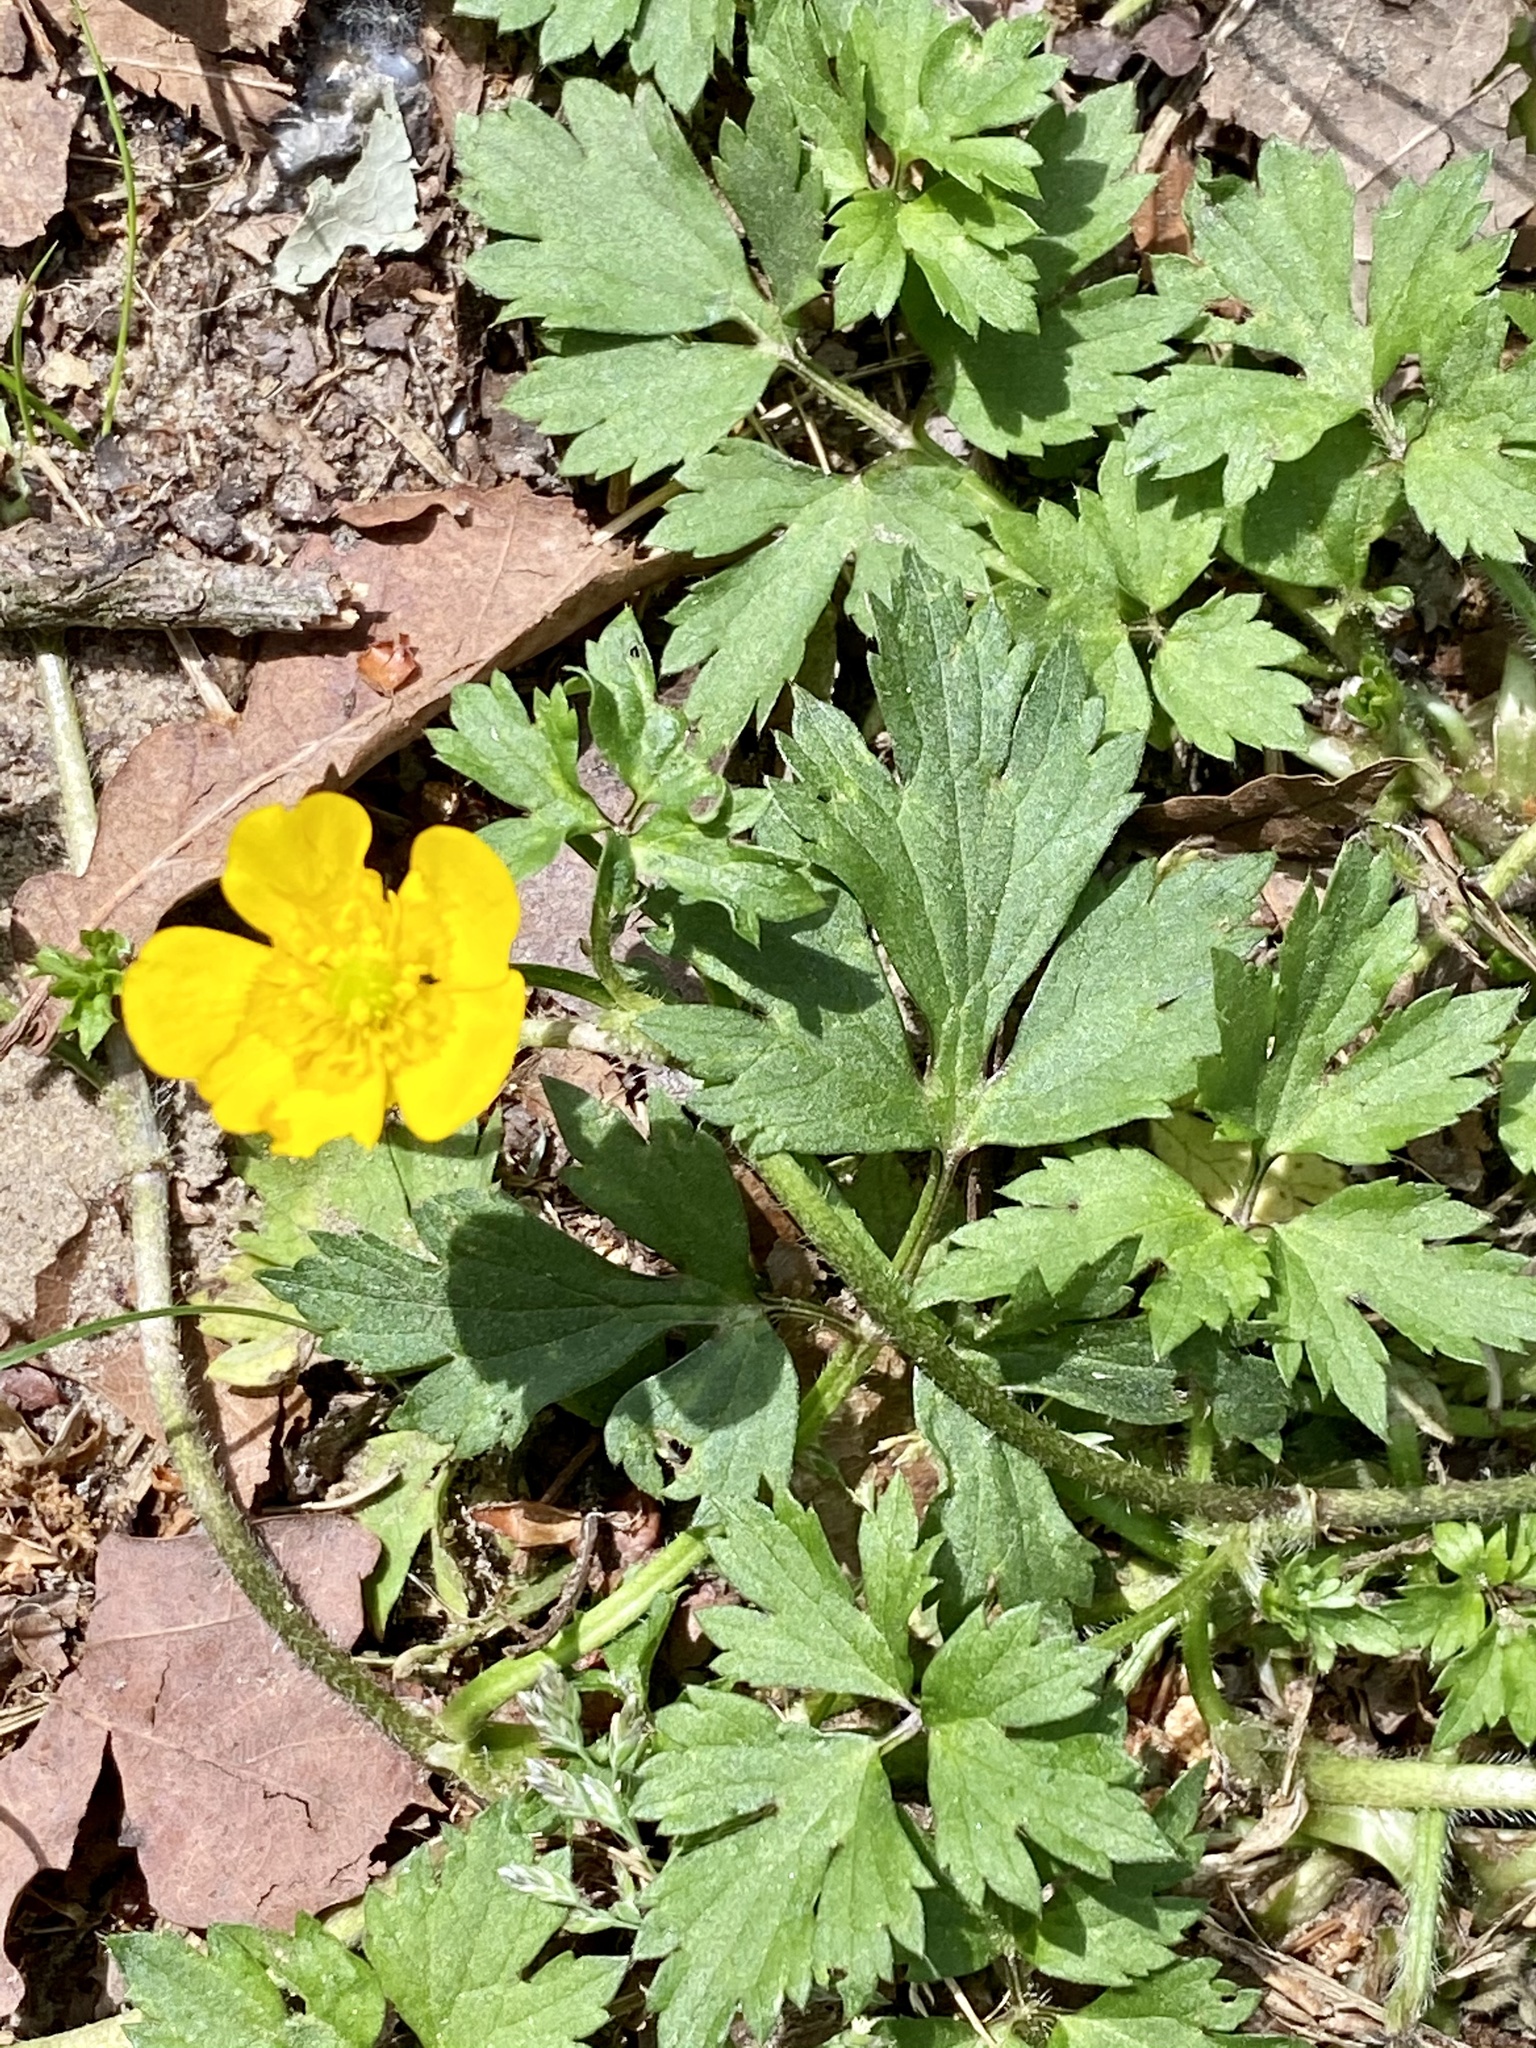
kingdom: Plantae
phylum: Tracheophyta
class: Magnoliopsida
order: Ranunculales
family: Ranunculaceae
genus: Ranunculus
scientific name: Ranunculus repens
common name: Creeping buttercup
